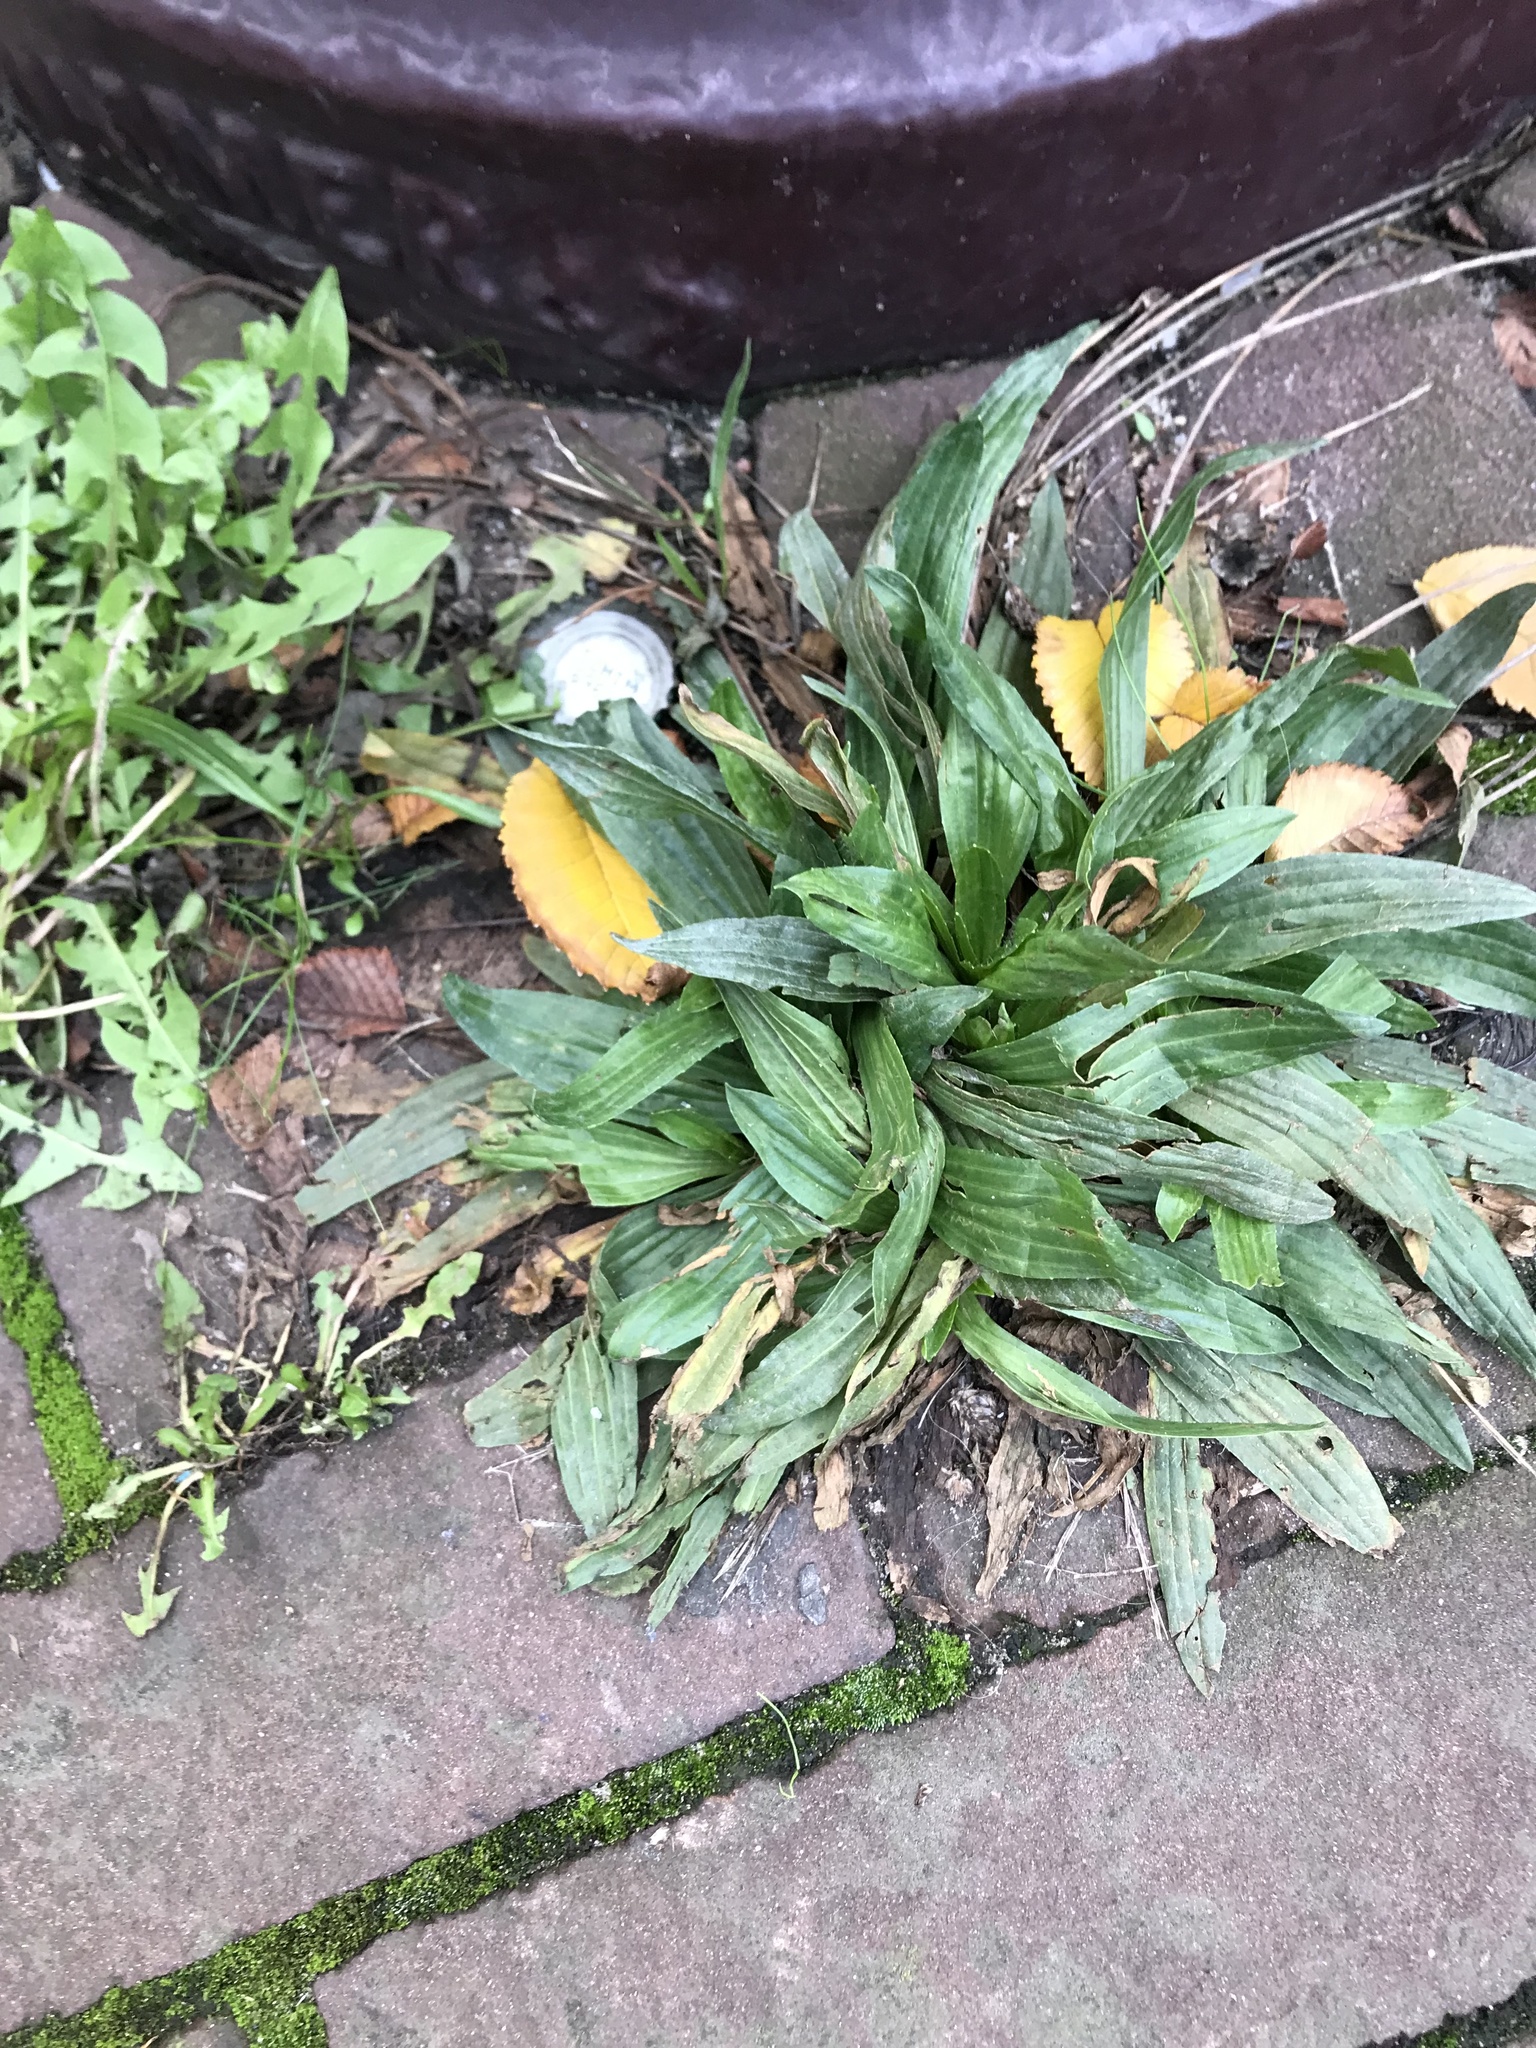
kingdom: Plantae
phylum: Tracheophyta
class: Magnoliopsida
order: Lamiales
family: Plantaginaceae
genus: Plantago
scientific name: Plantago lanceolata
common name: Ribwort plantain
